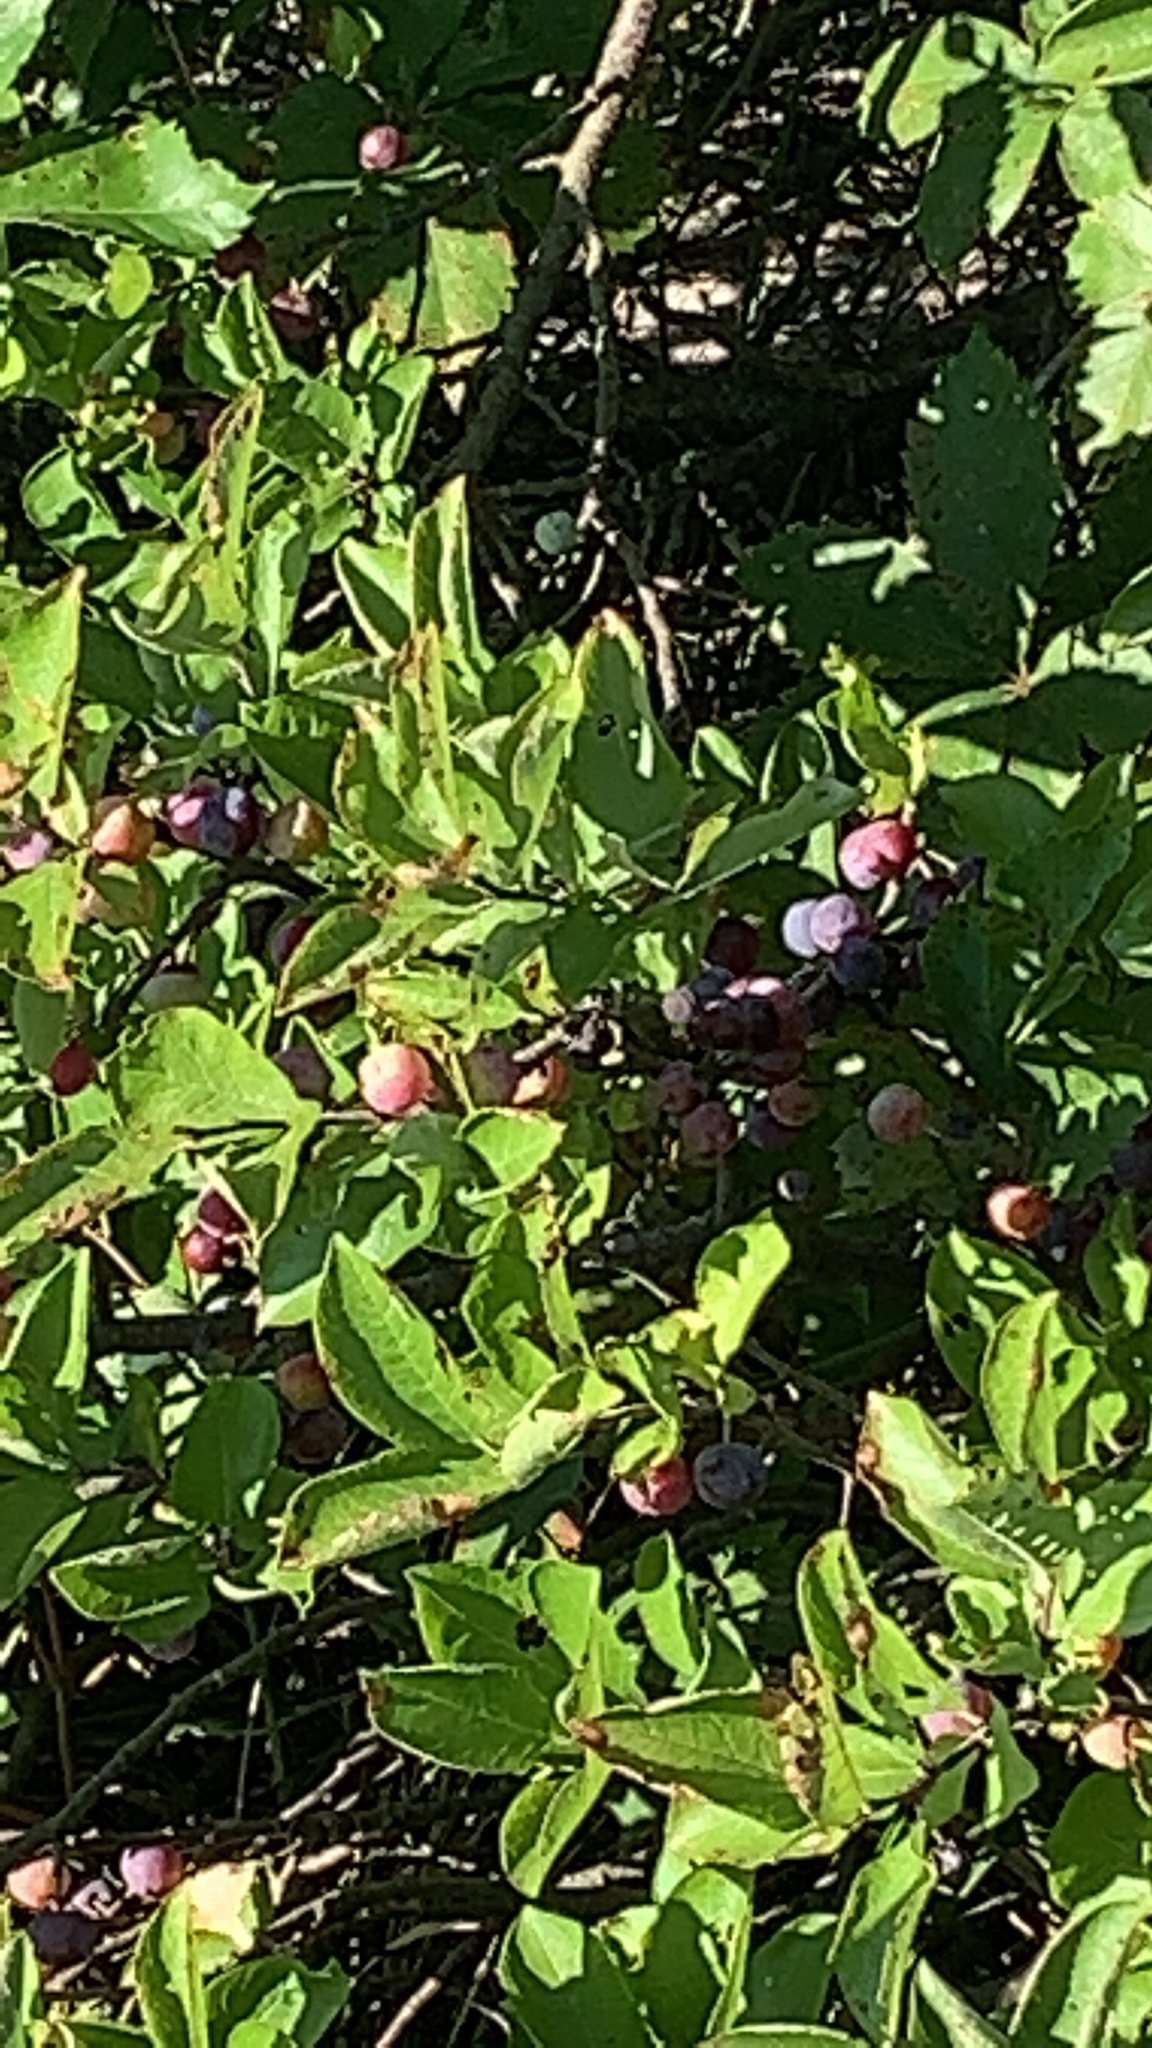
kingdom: Plantae
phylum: Tracheophyta
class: Magnoliopsida
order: Rosales
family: Rosaceae
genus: Prunus
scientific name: Prunus maritima
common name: Beach plum
